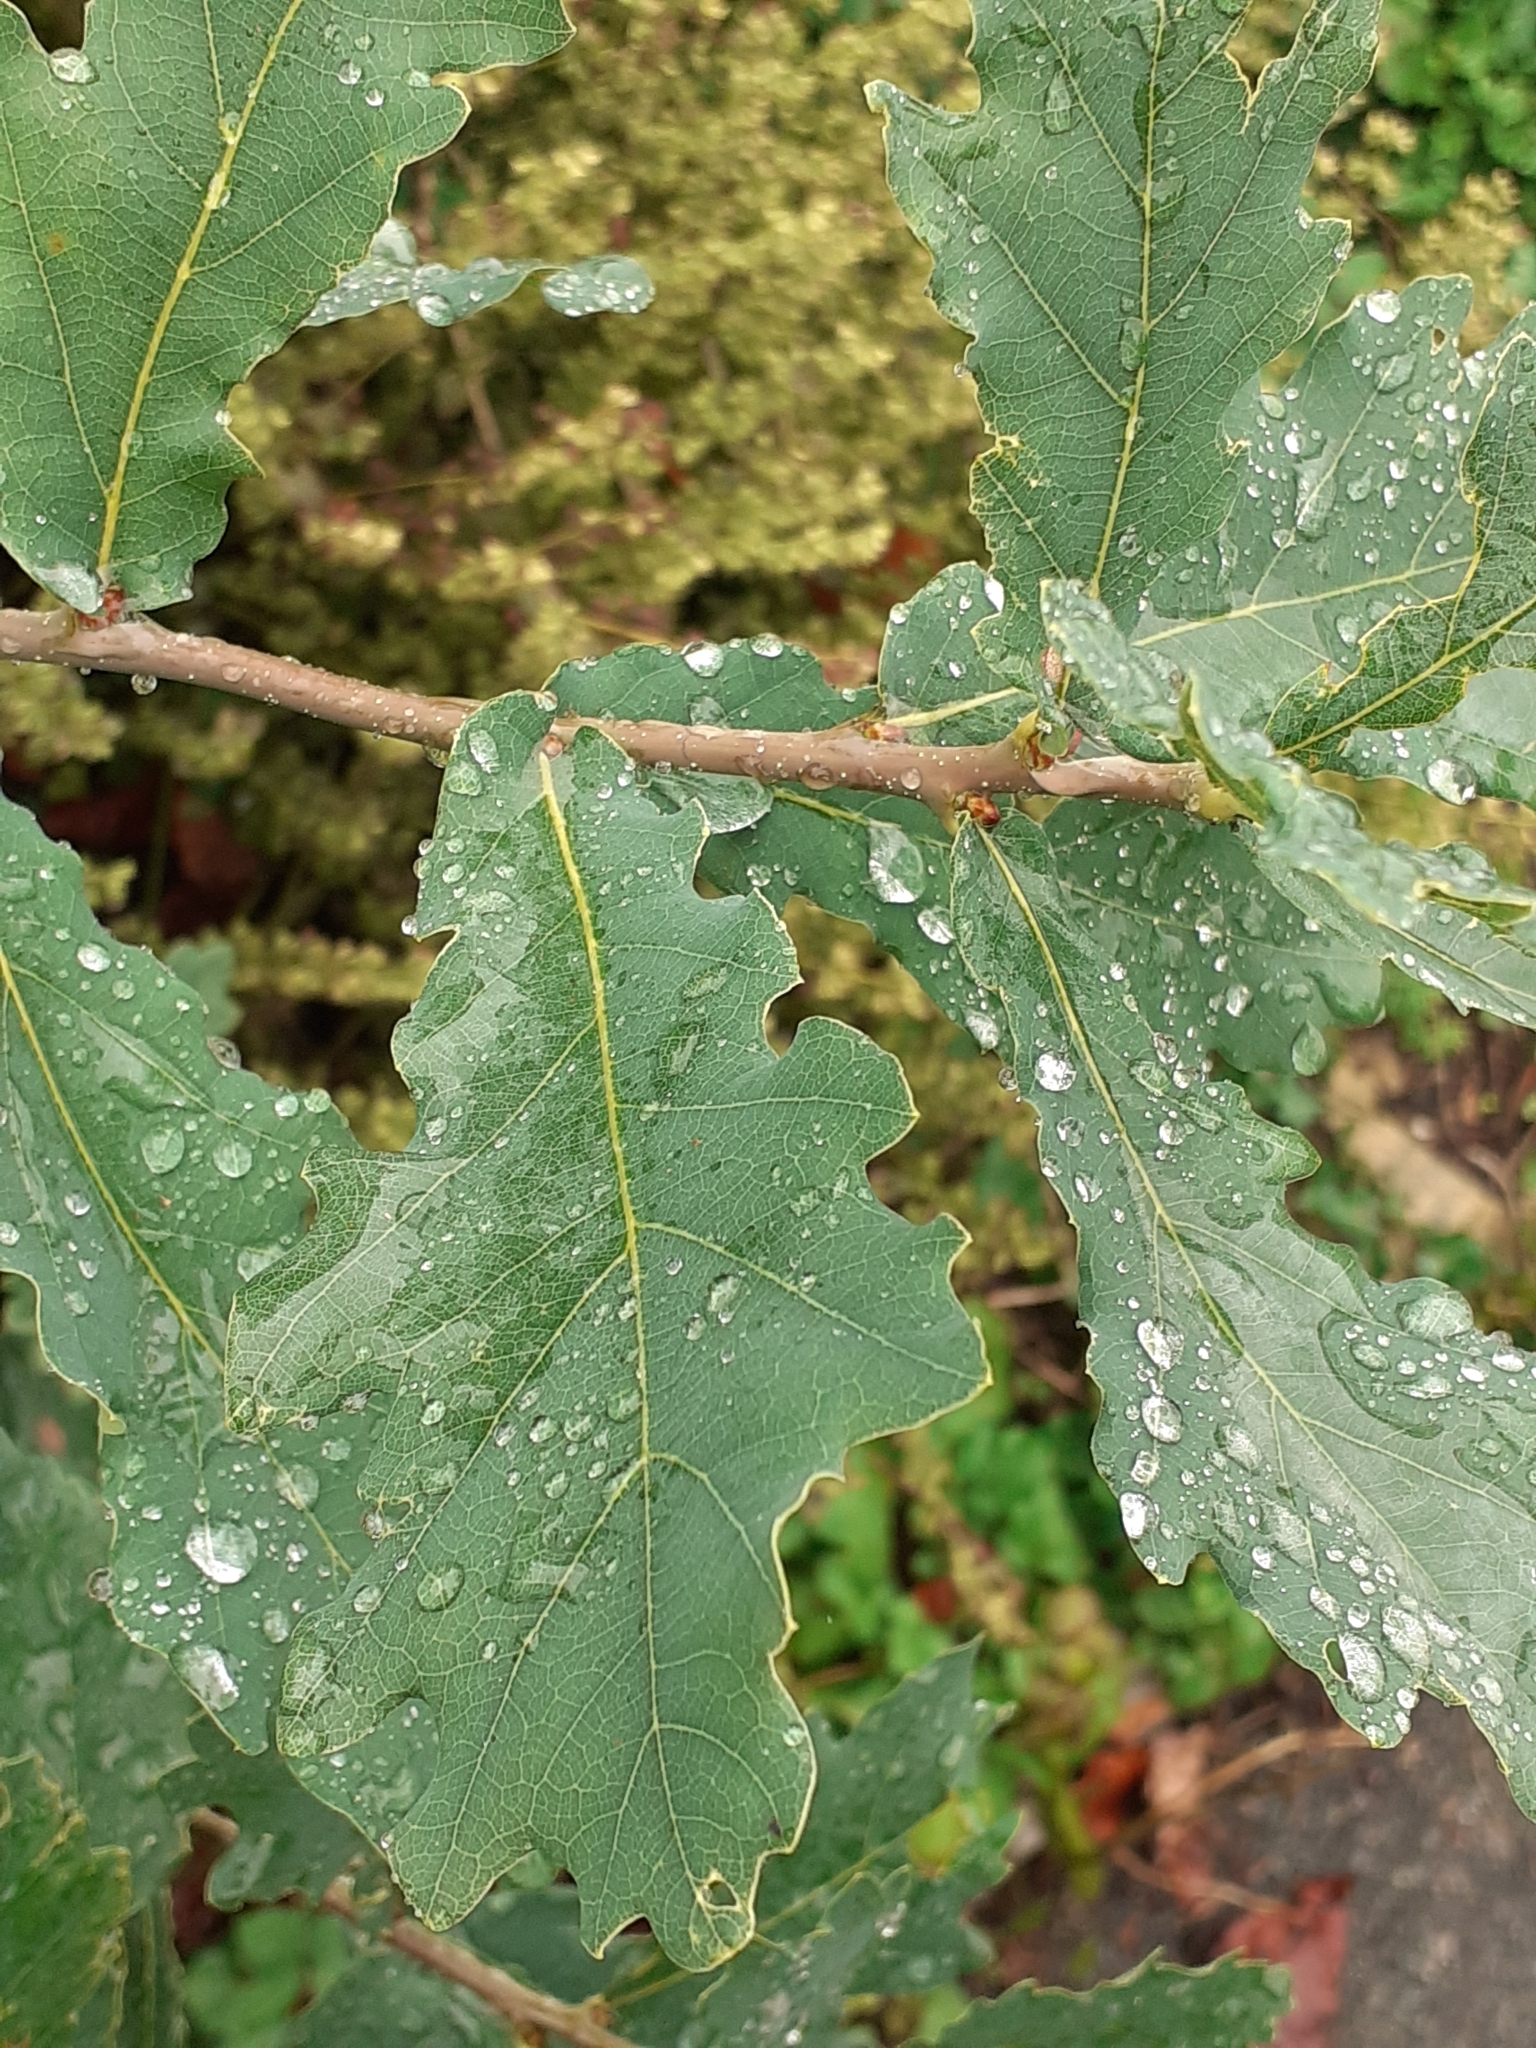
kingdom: Plantae
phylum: Tracheophyta
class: Magnoliopsida
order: Fagales
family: Fagaceae
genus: Quercus
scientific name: Quercus robur
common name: Pedunculate oak
